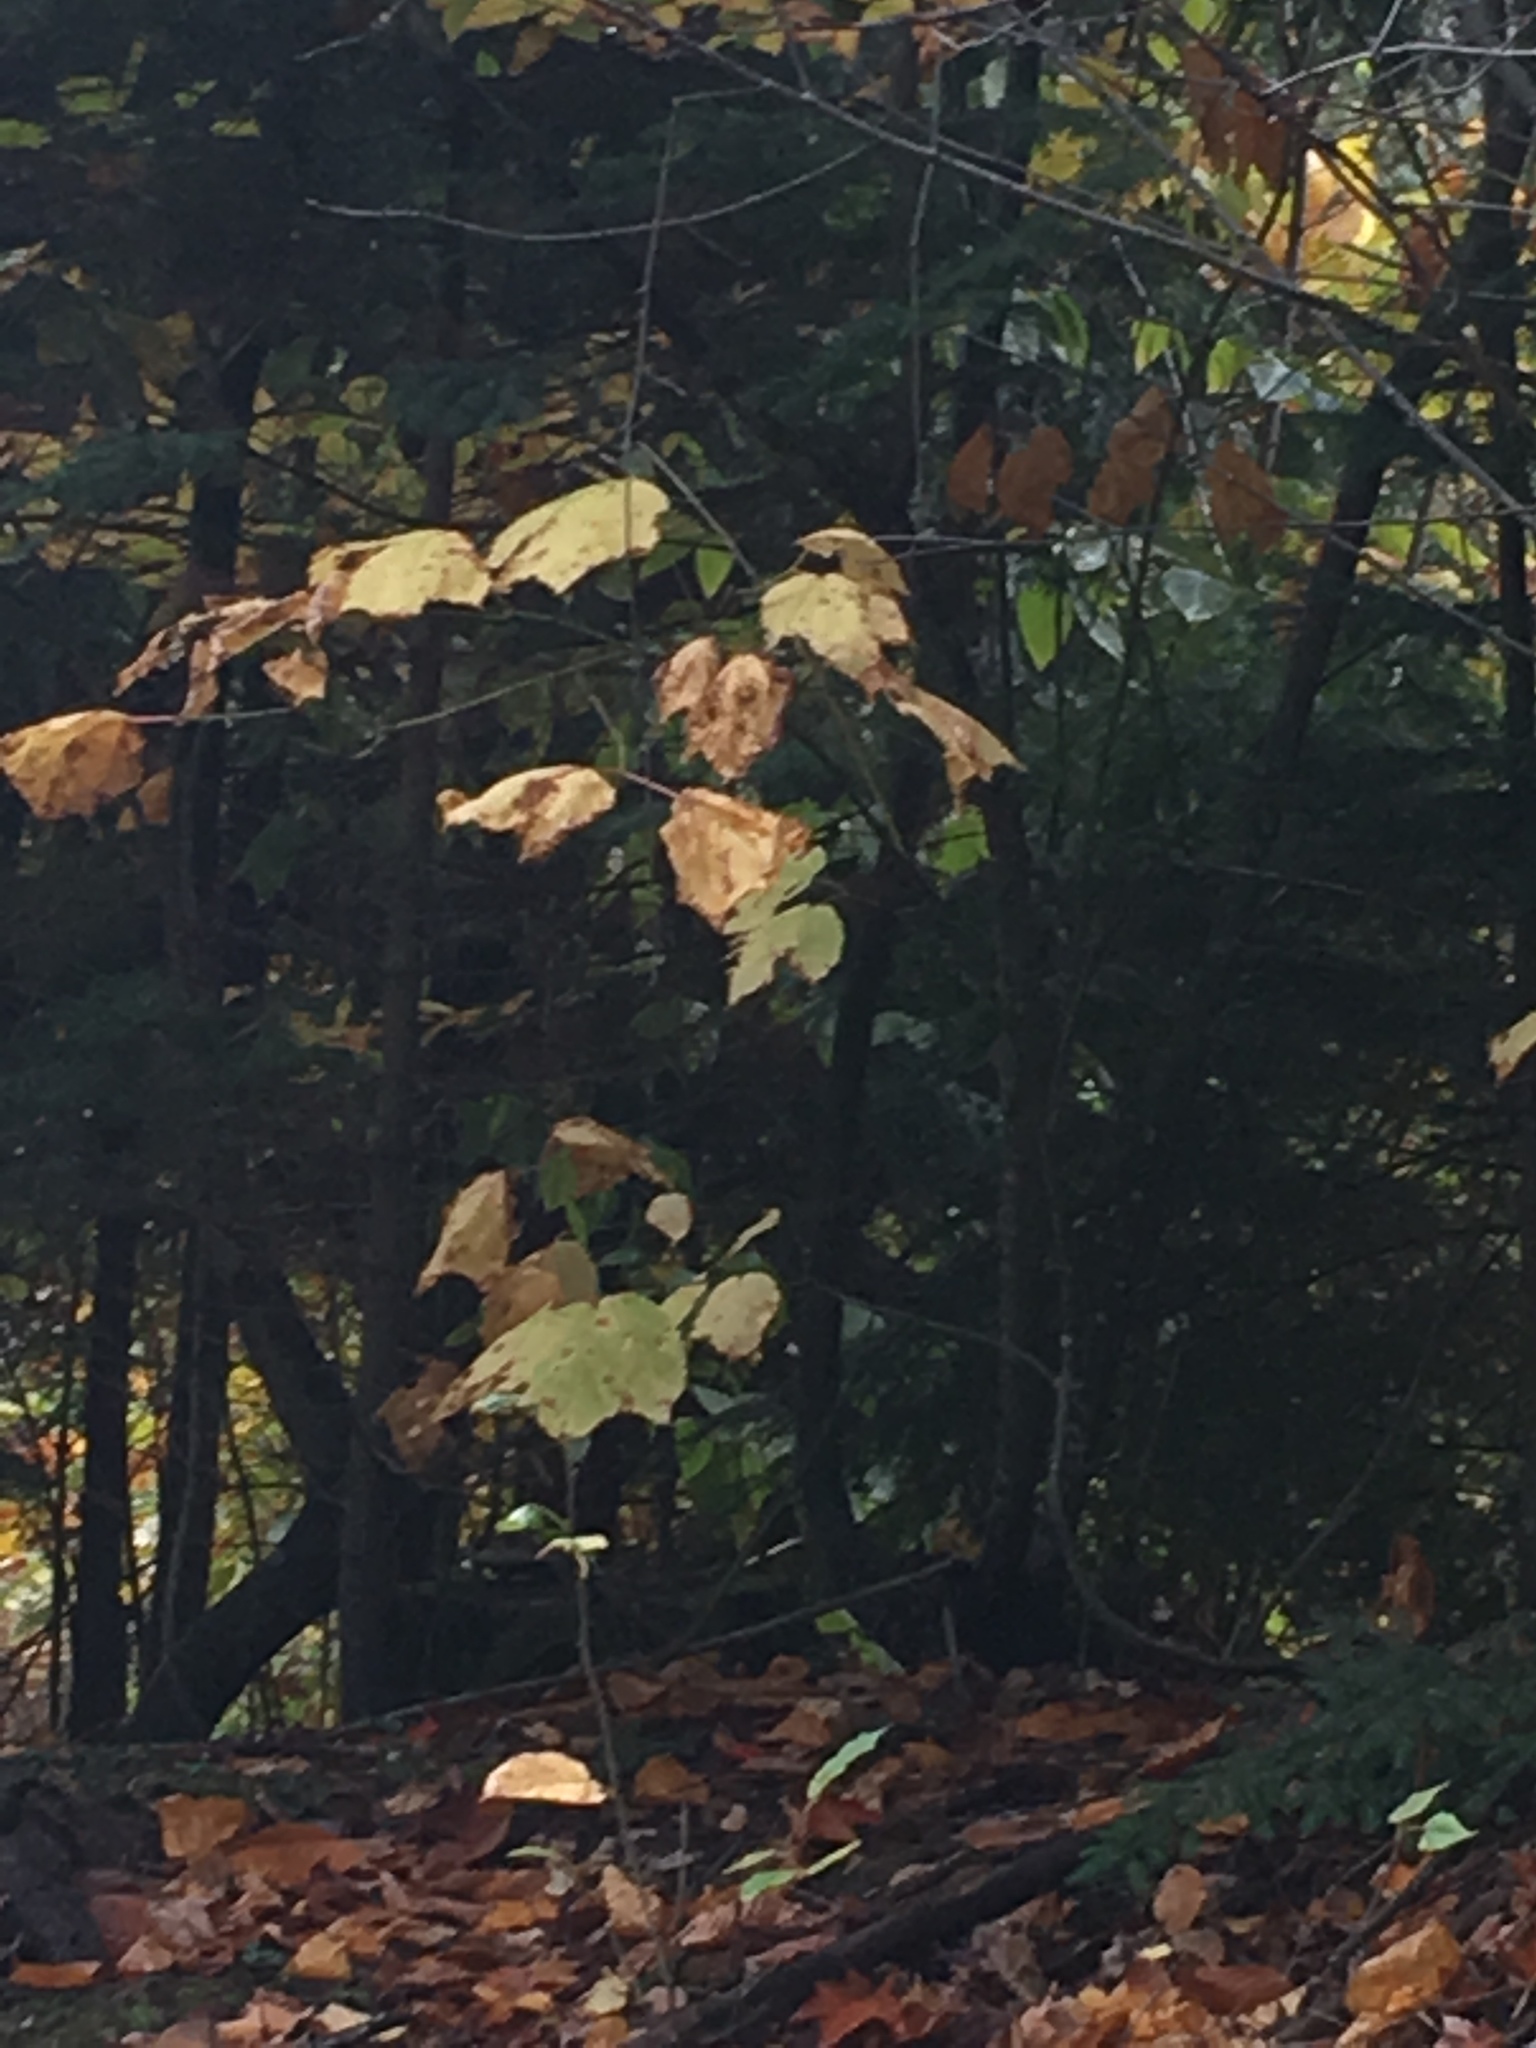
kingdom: Plantae
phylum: Tracheophyta
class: Magnoliopsida
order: Sapindales
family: Sapindaceae
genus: Acer
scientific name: Acer pensylvanicum
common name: Moosewood
